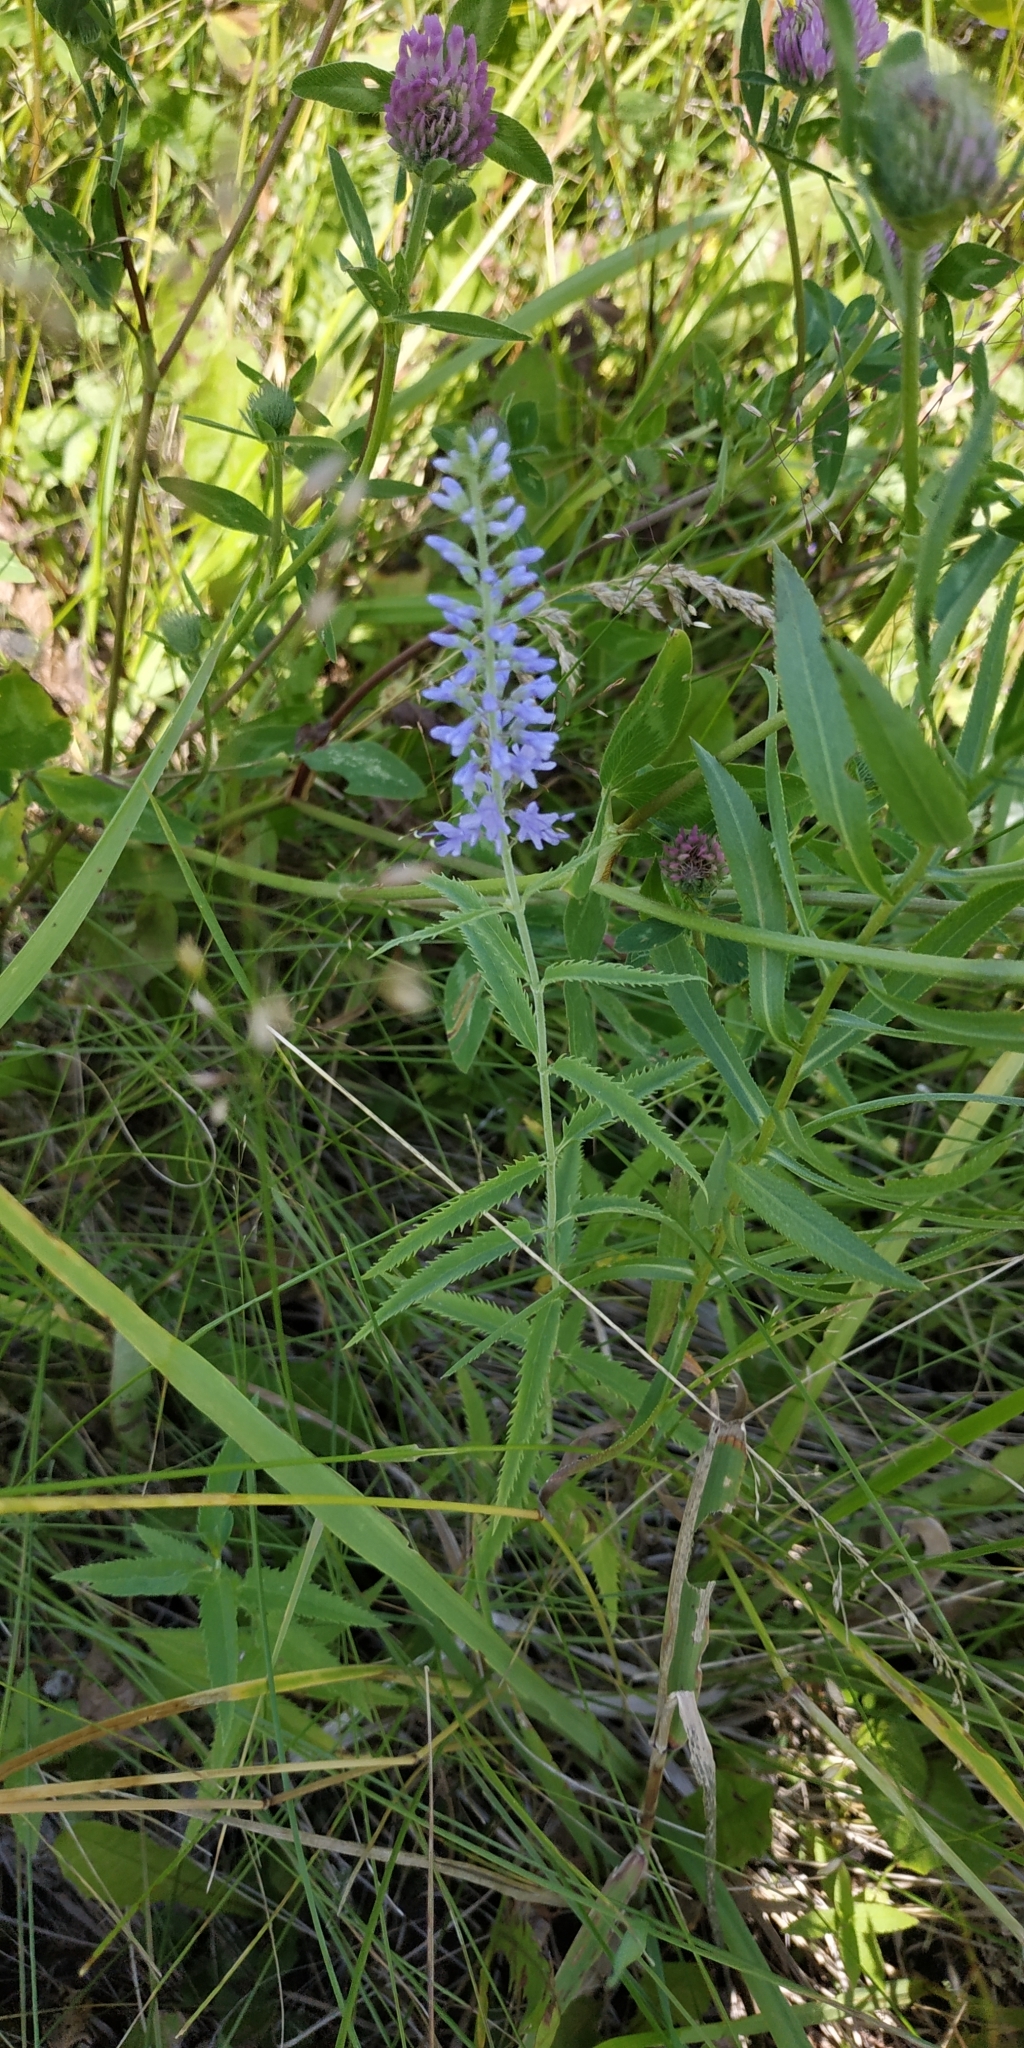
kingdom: Plantae
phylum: Tracheophyta
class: Magnoliopsida
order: Lamiales
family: Plantaginaceae
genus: Veronica
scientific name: Veronica longifolia
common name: Garden speedwell
